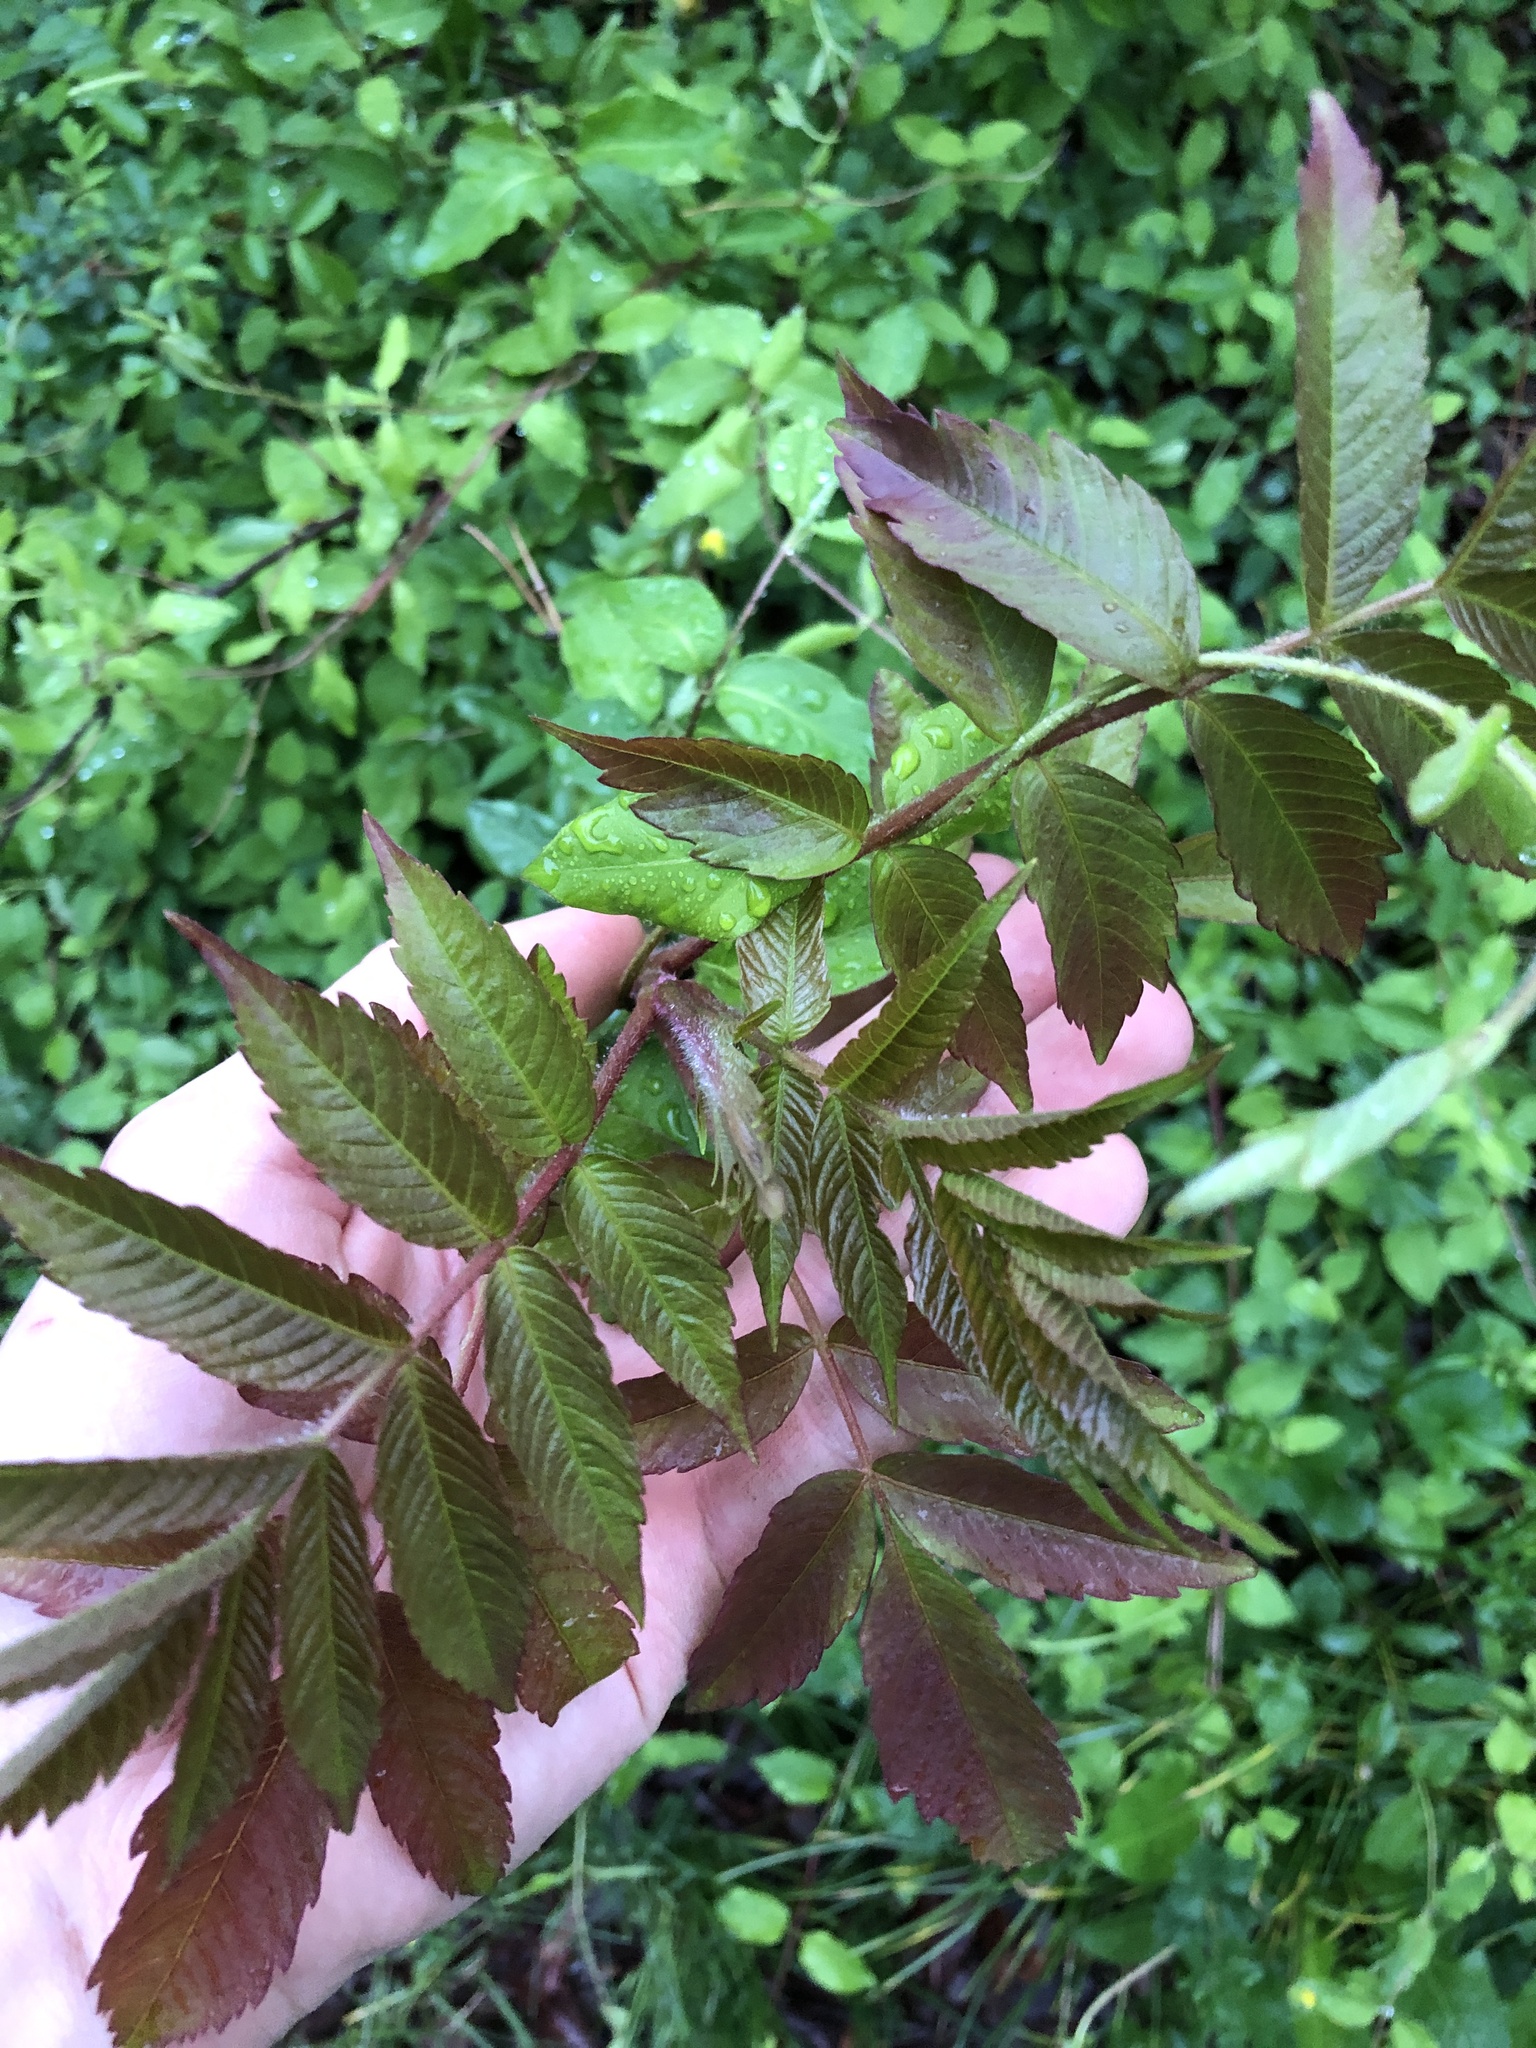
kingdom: Plantae
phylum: Tracheophyta
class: Magnoliopsida
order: Sapindales
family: Anacardiaceae
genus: Rhus
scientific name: Rhus typhina
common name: Staghorn sumac
